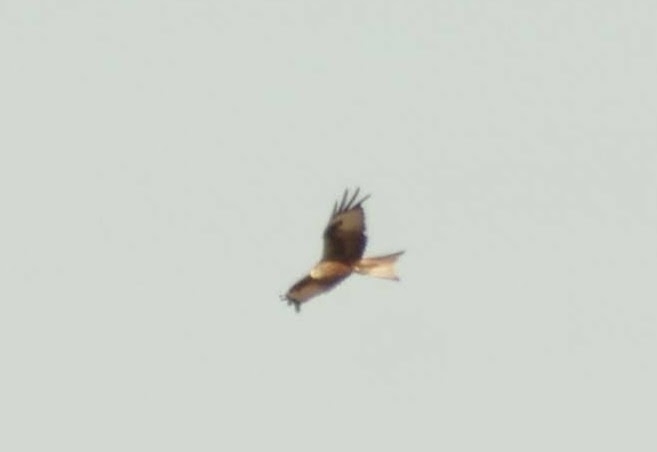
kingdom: Animalia
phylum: Chordata
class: Aves
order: Accipitriformes
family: Accipitridae
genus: Milvus
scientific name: Milvus milvus
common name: Red kite
